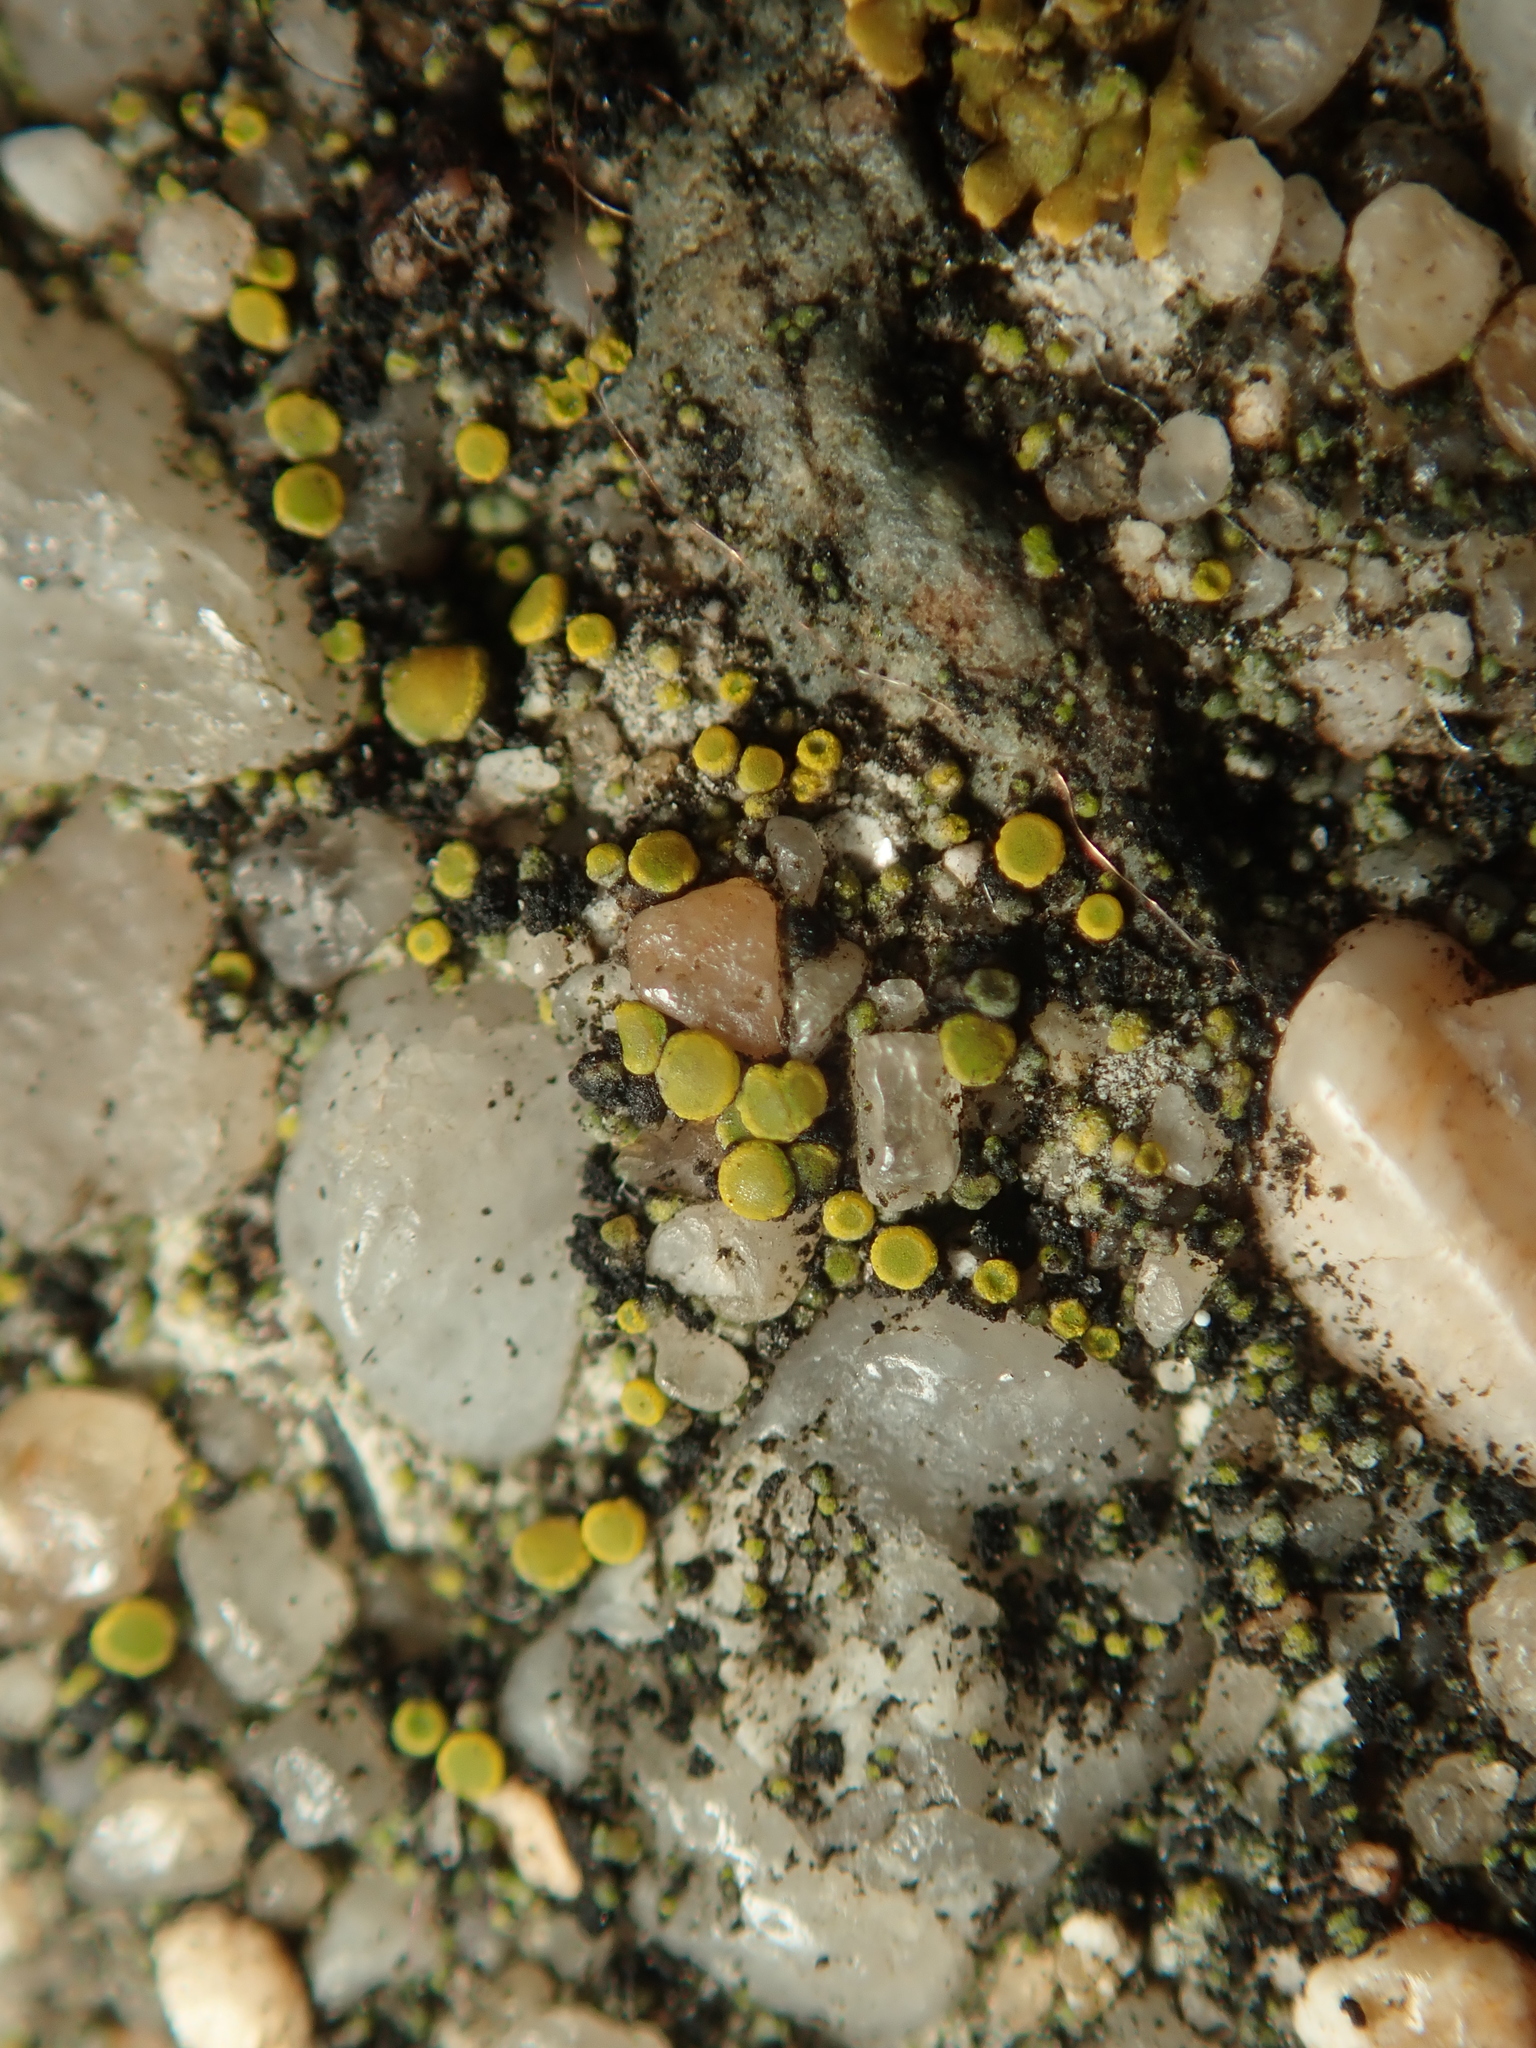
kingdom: Fungi
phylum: Ascomycota
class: Candelariomycetes
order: Candelariales
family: Candelariaceae
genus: Candelariella
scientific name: Candelariella aurella
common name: Hidden goldspeck lichen
